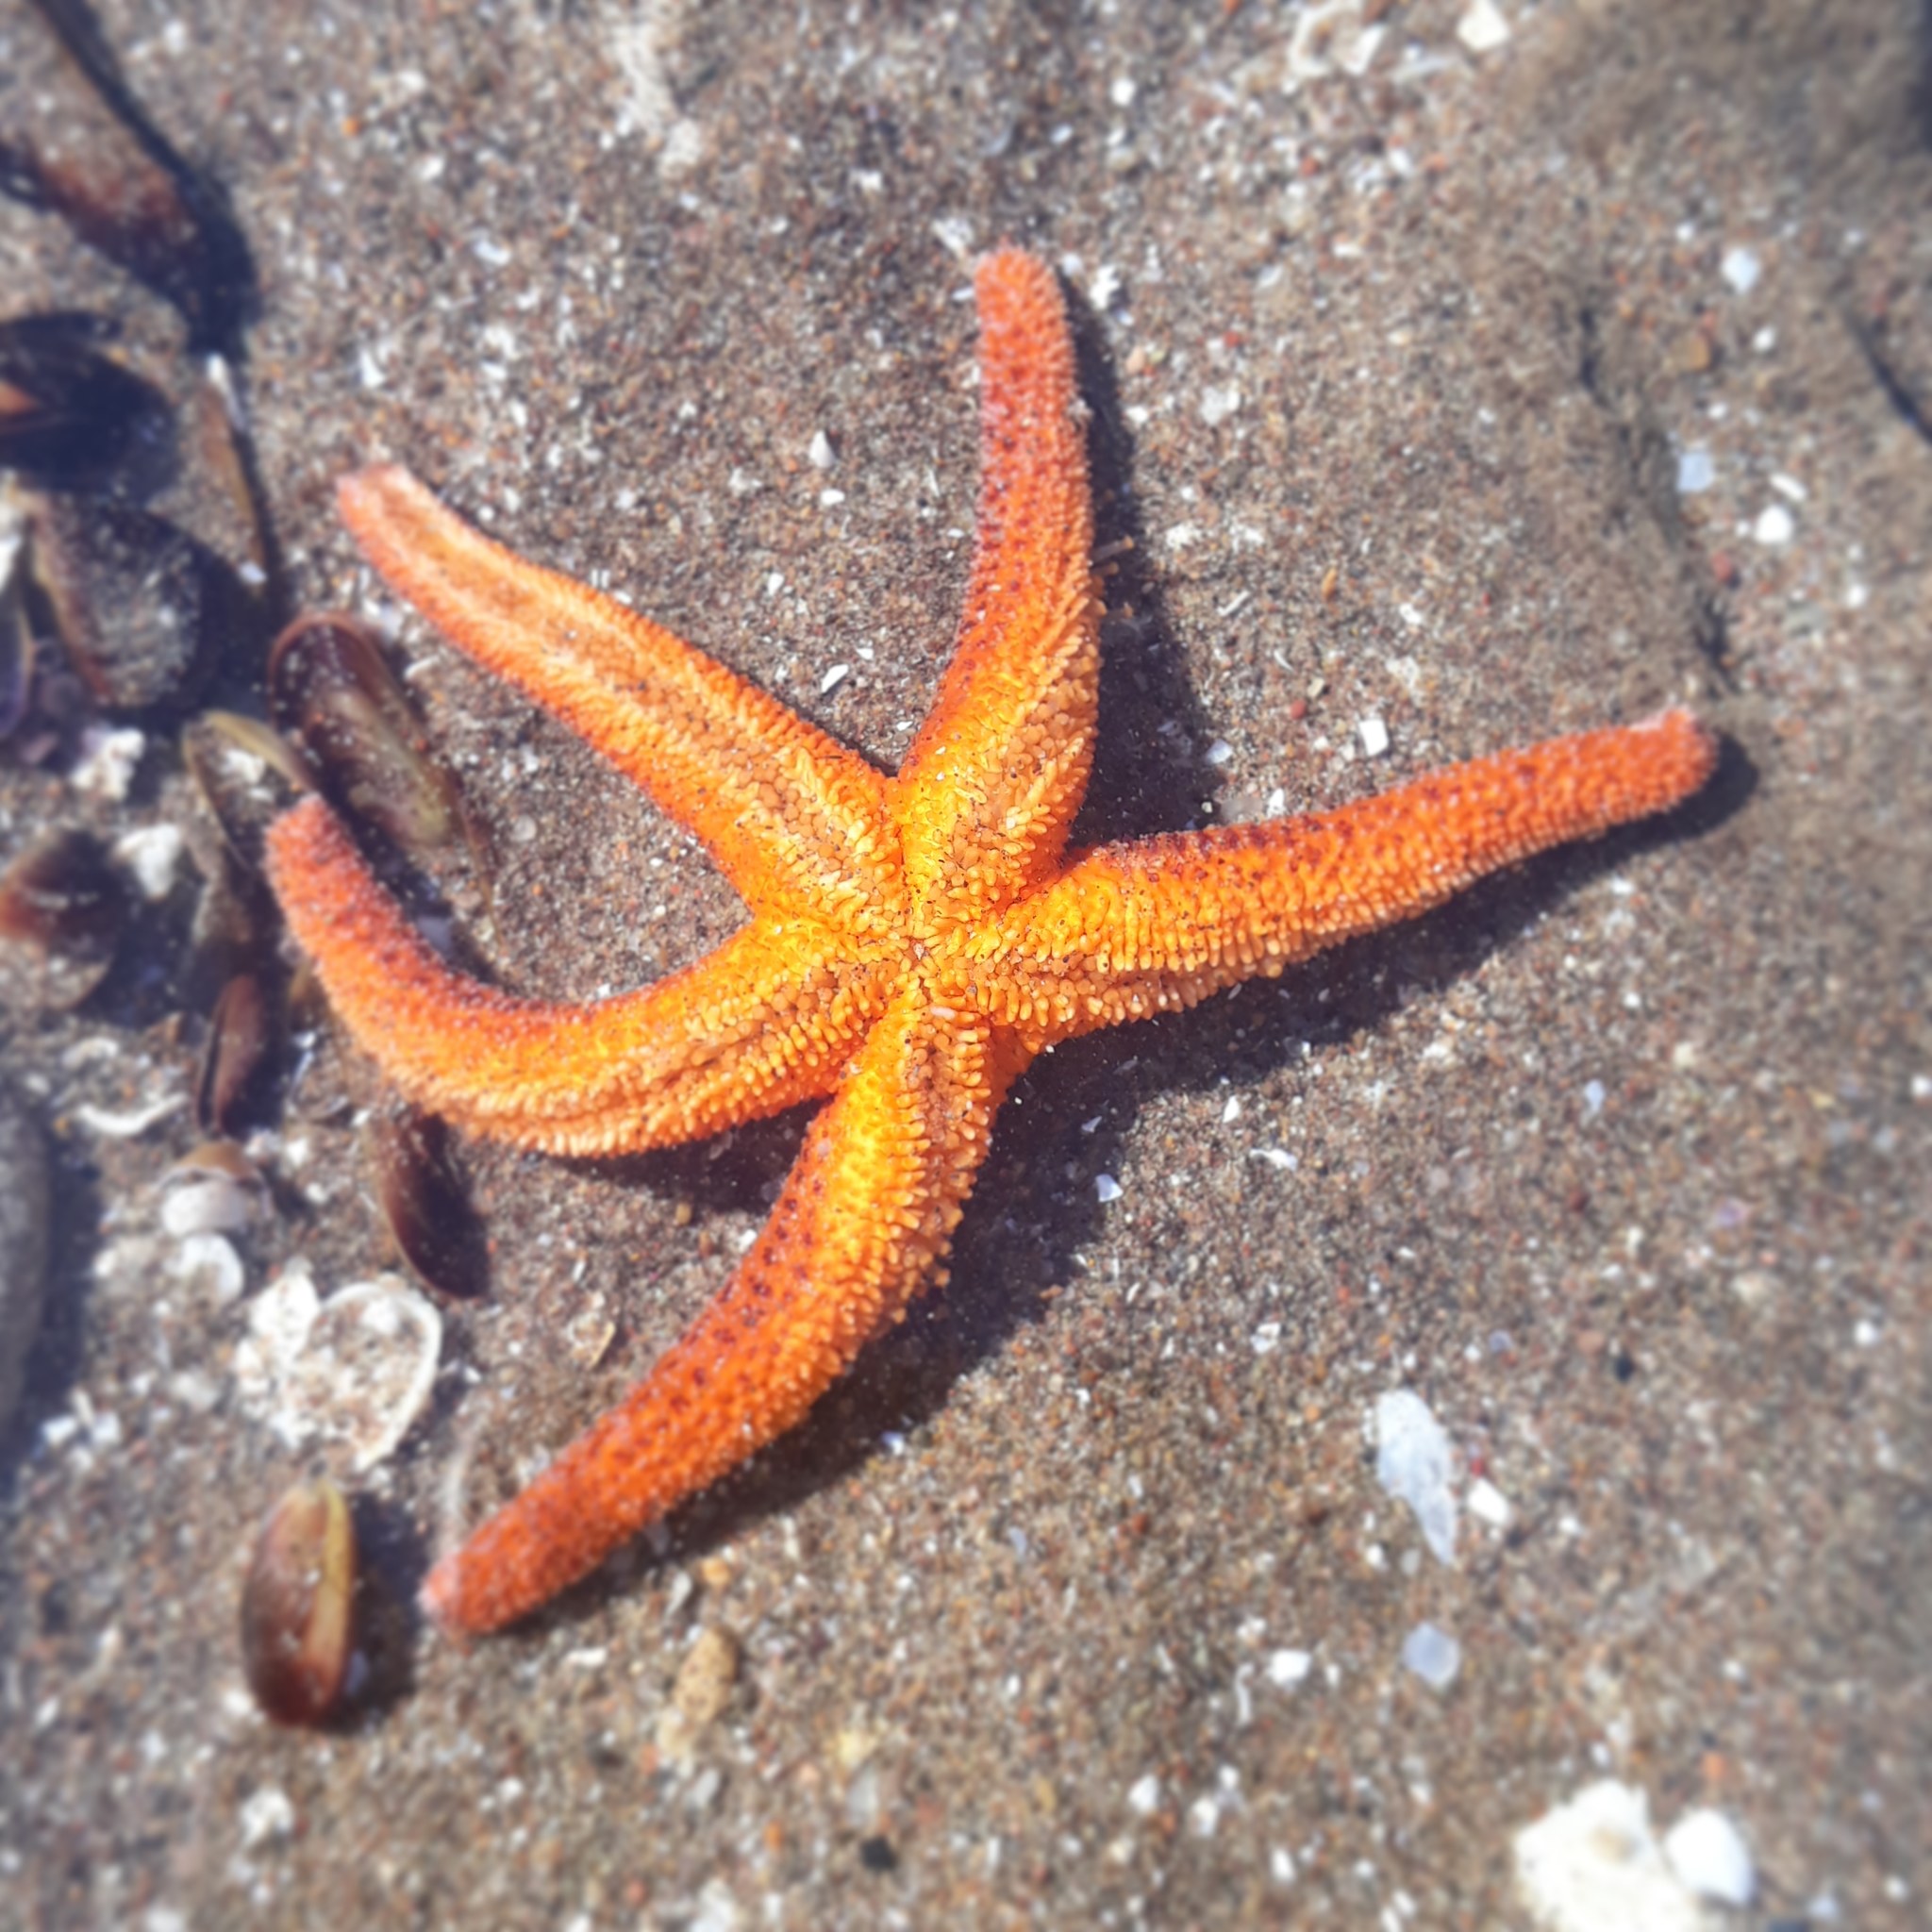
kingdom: Animalia
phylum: Echinodermata
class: Asteroidea
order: Spinulosida
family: Echinasteridae
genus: Henricia
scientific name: Henricia leviuscula
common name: Pacific blood star
